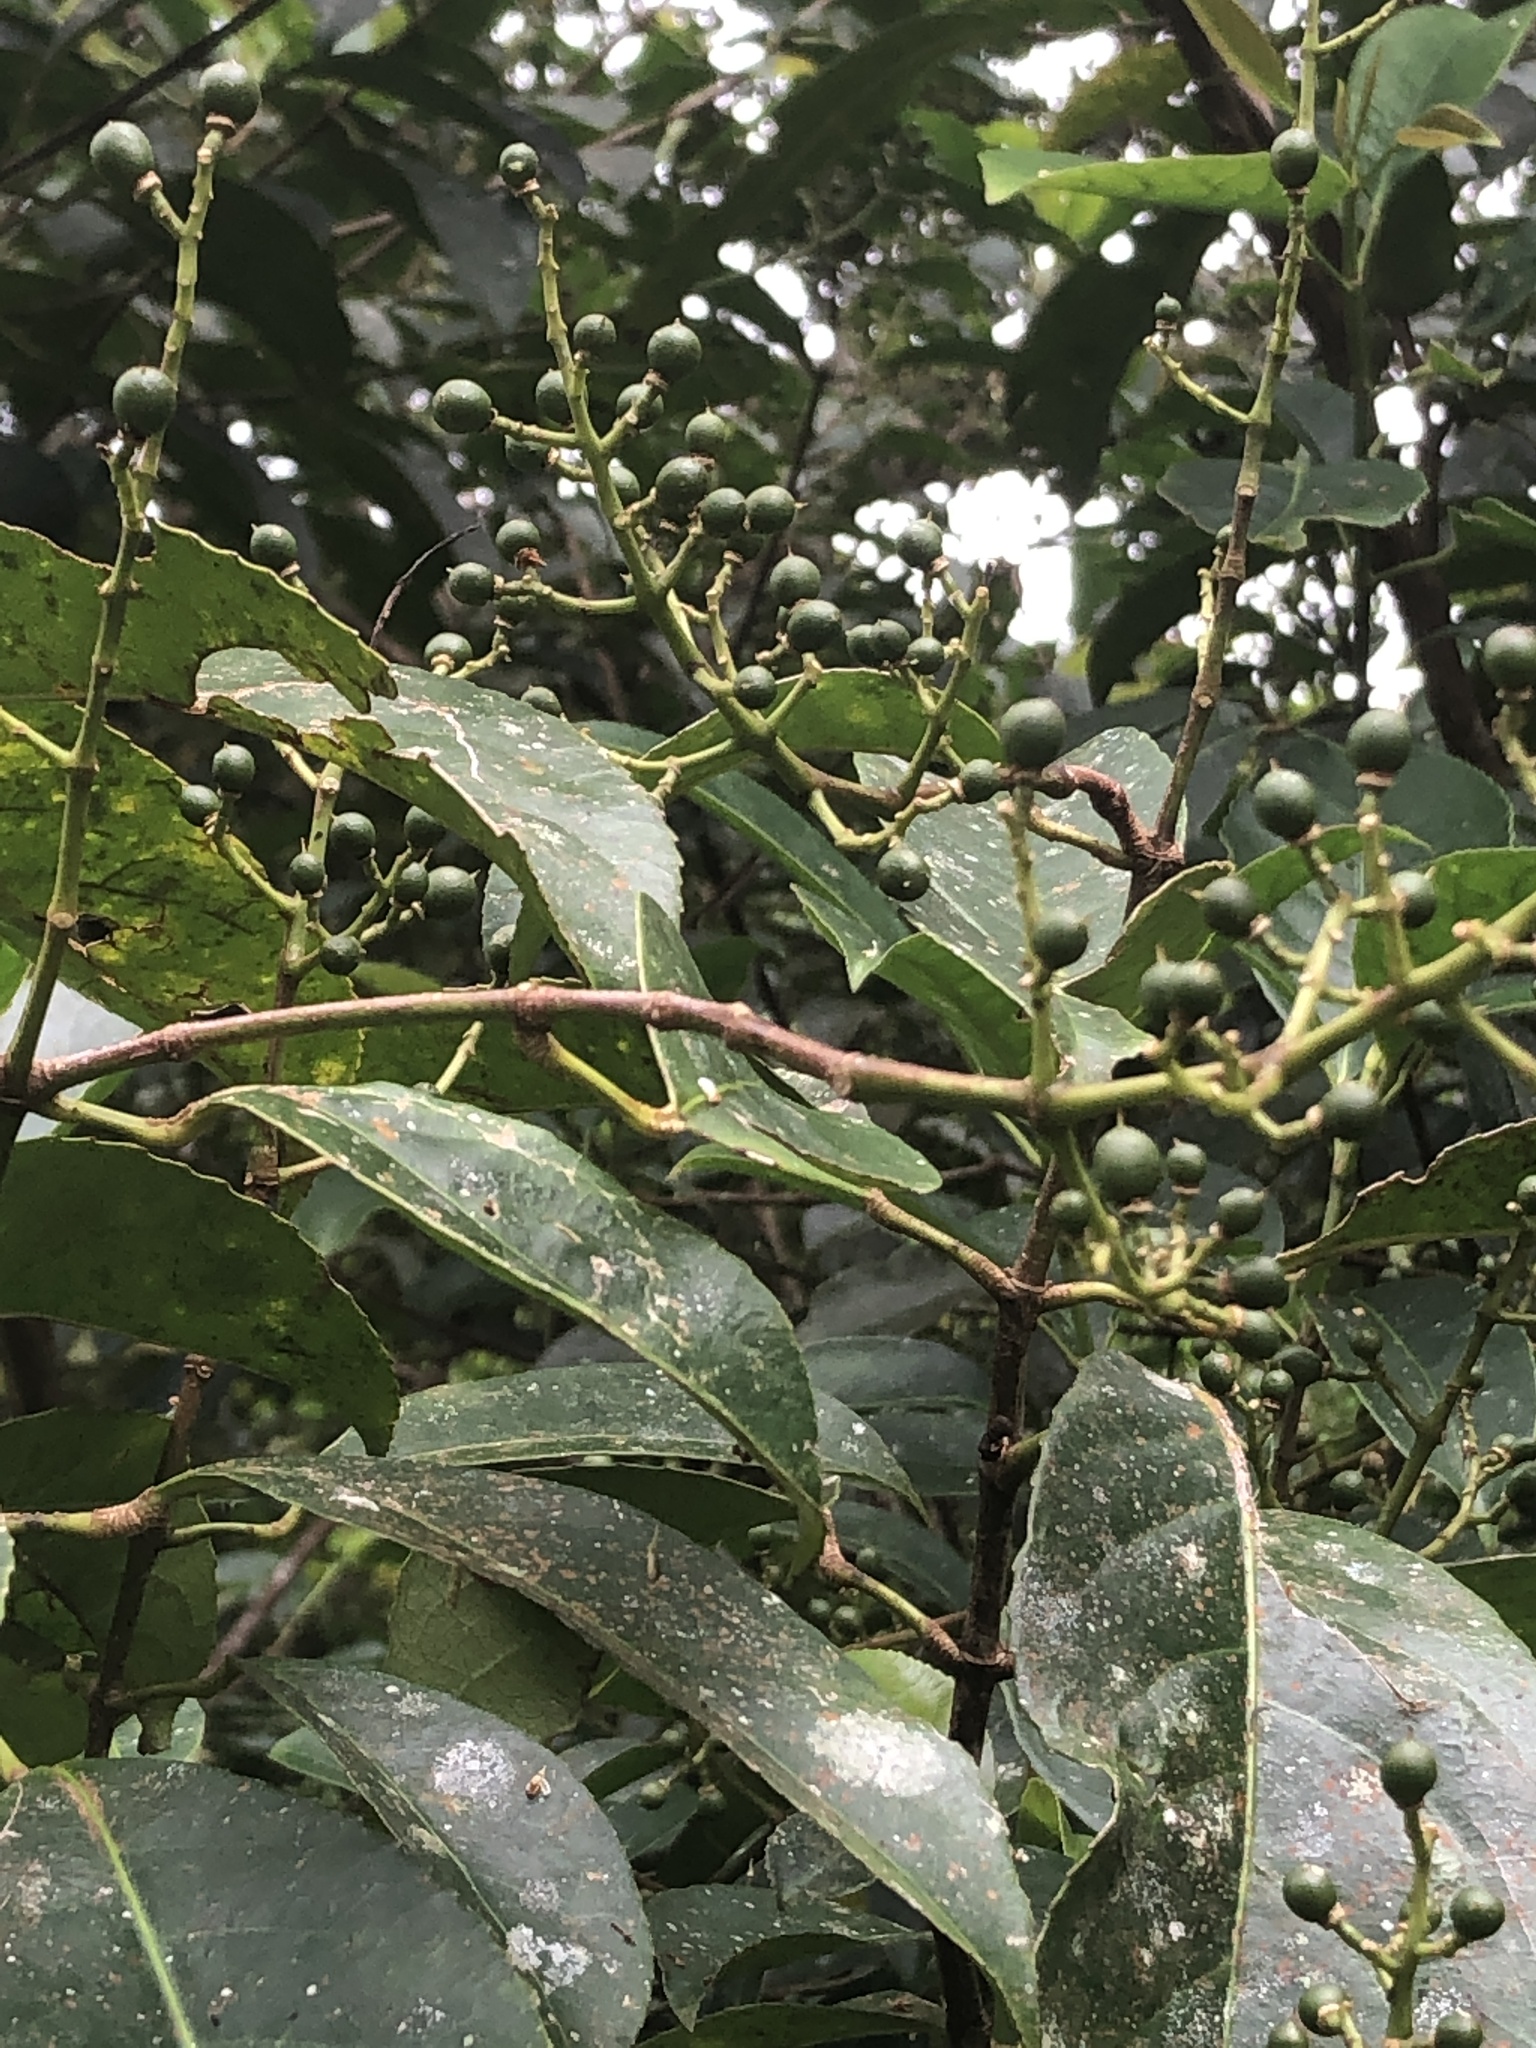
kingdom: Plantae
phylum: Tracheophyta
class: Magnoliopsida
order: Crossosomatales
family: Staphyleaceae
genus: Turpinia
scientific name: Turpinia formosana
